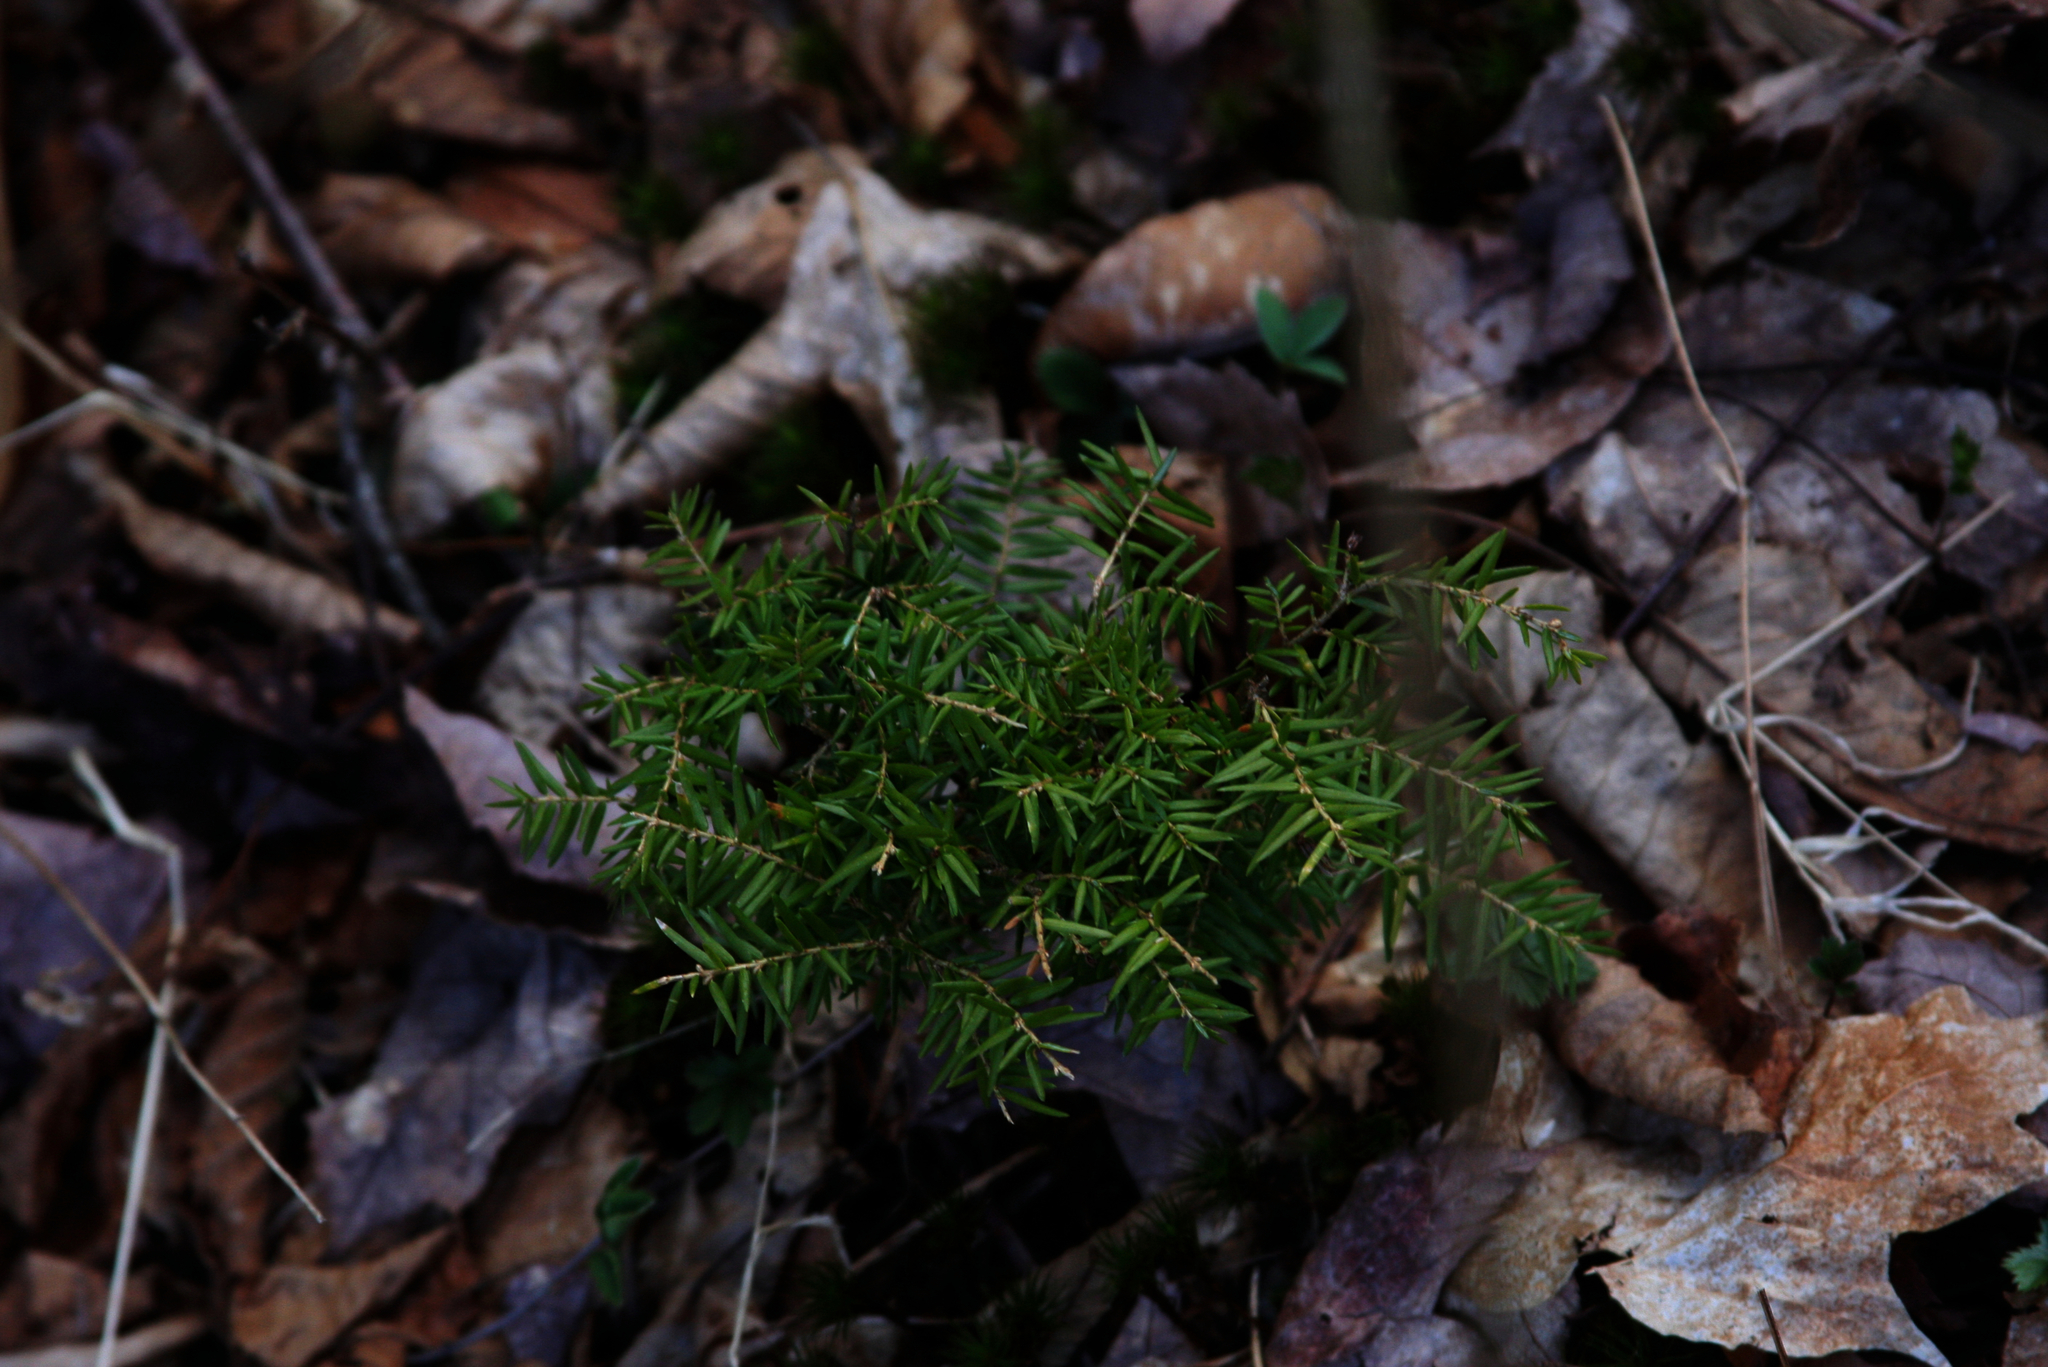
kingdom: Plantae
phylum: Tracheophyta
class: Pinopsida
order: Pinales
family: Pinaceae
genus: Tsuga
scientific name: Tsuga canadensis
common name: Eastern hemlock
